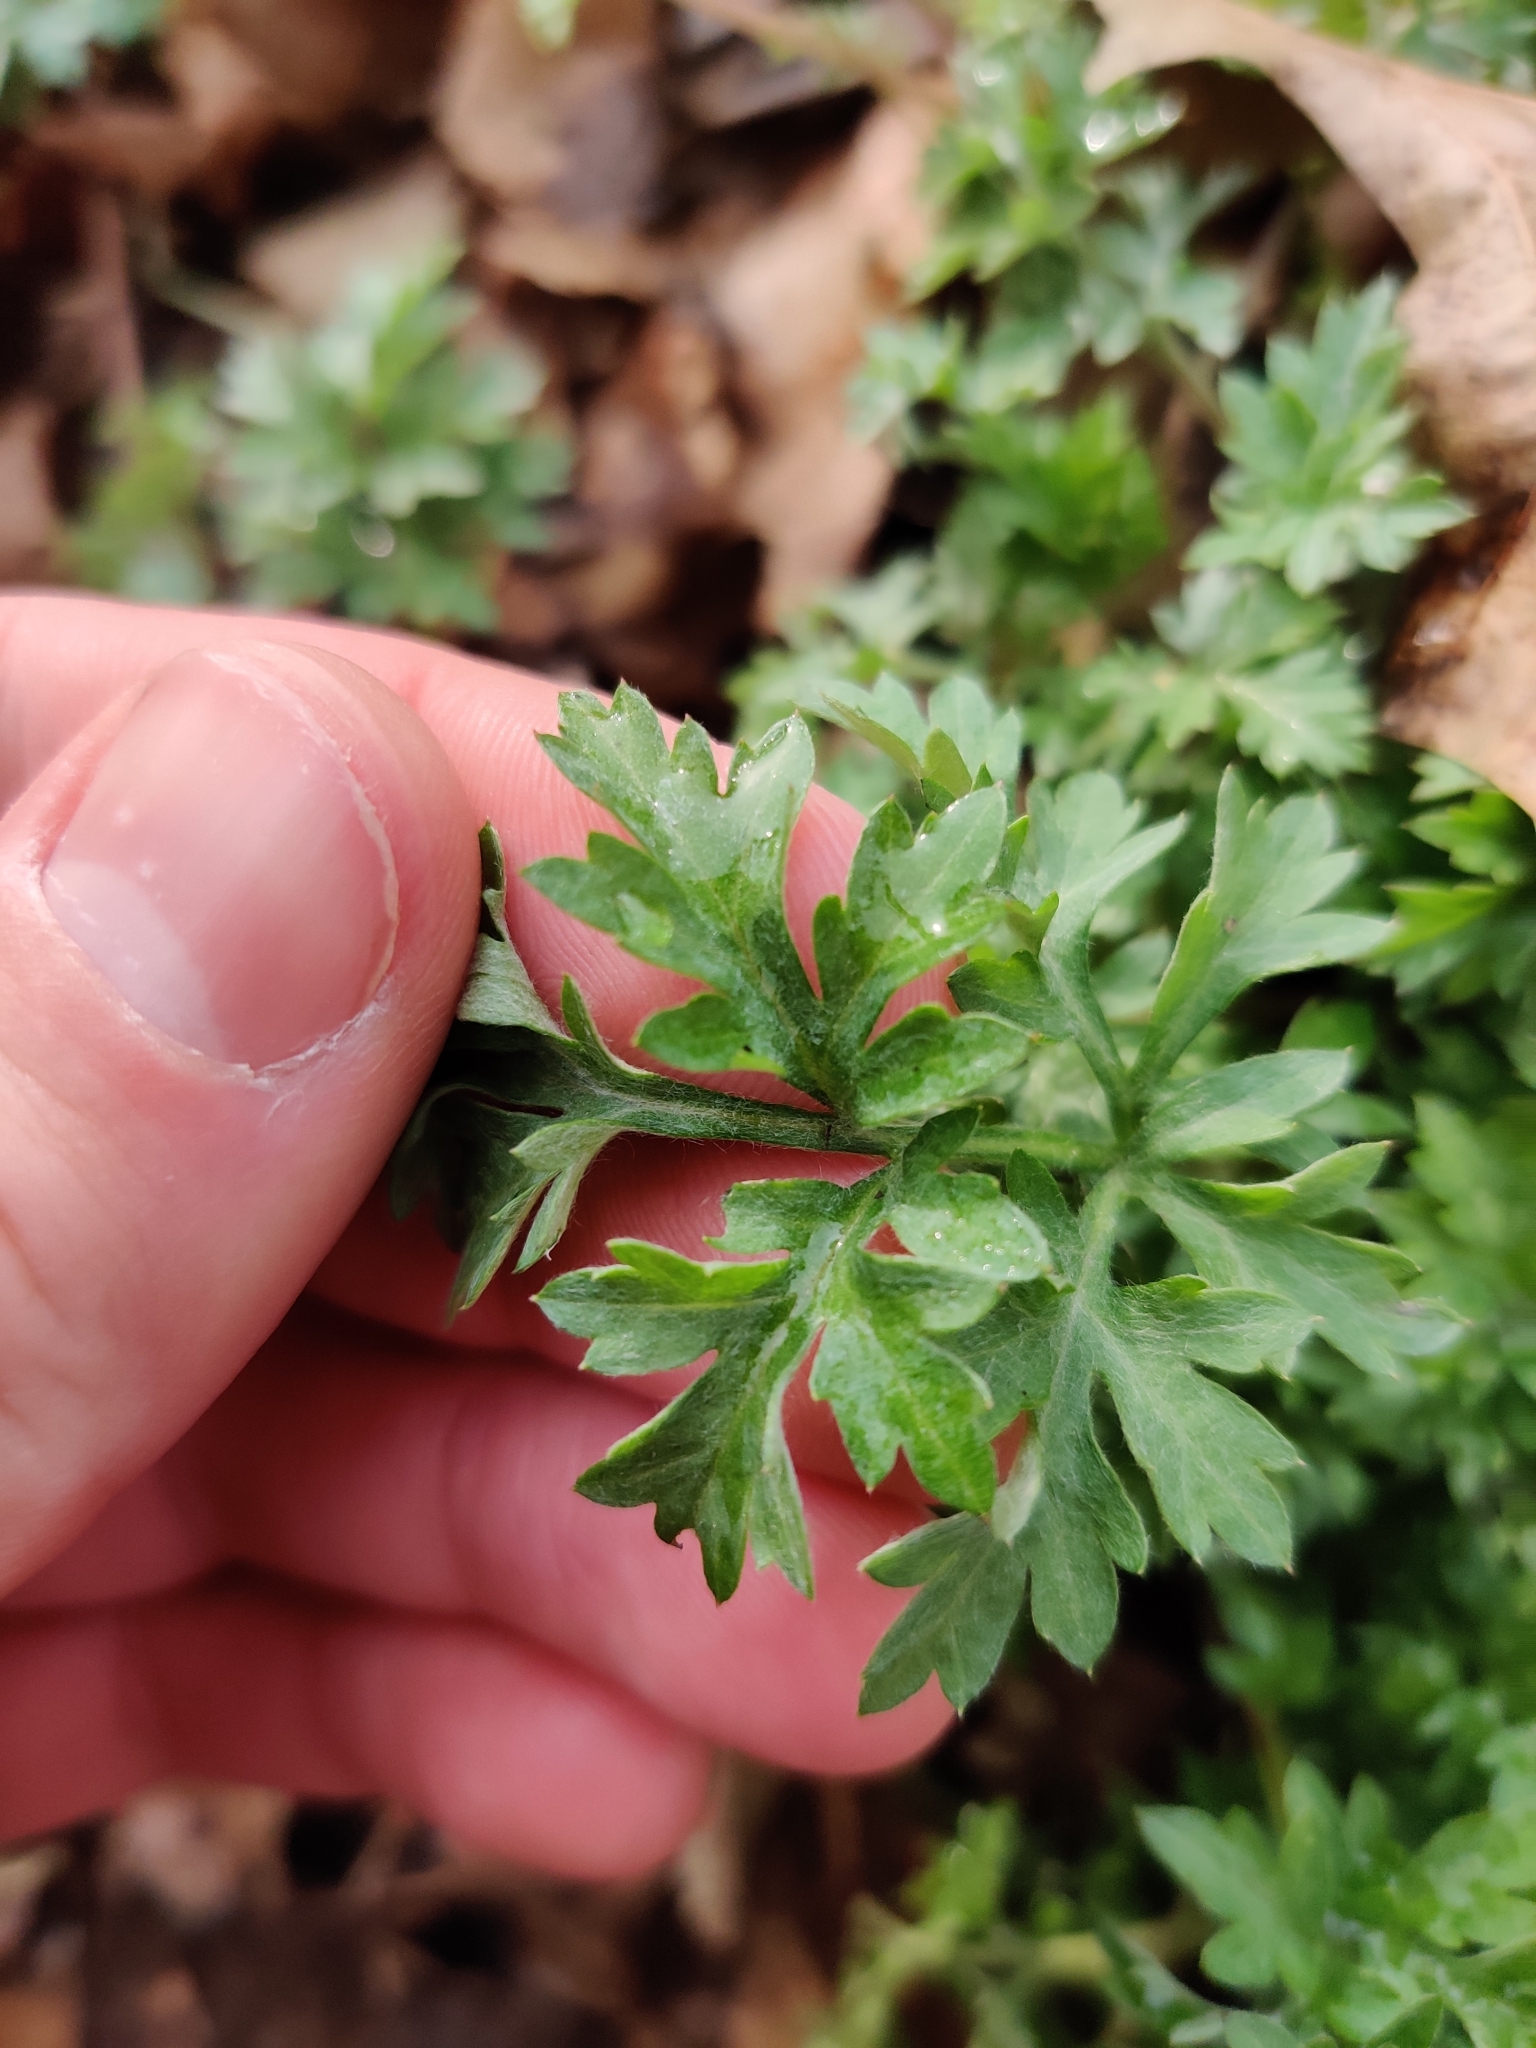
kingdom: Plantae
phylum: Tracheophyta
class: Magnoliopsida
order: Asterales
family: Asteraceae
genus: Artemisia
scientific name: Artemisia vulgaris
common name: Mugwort
